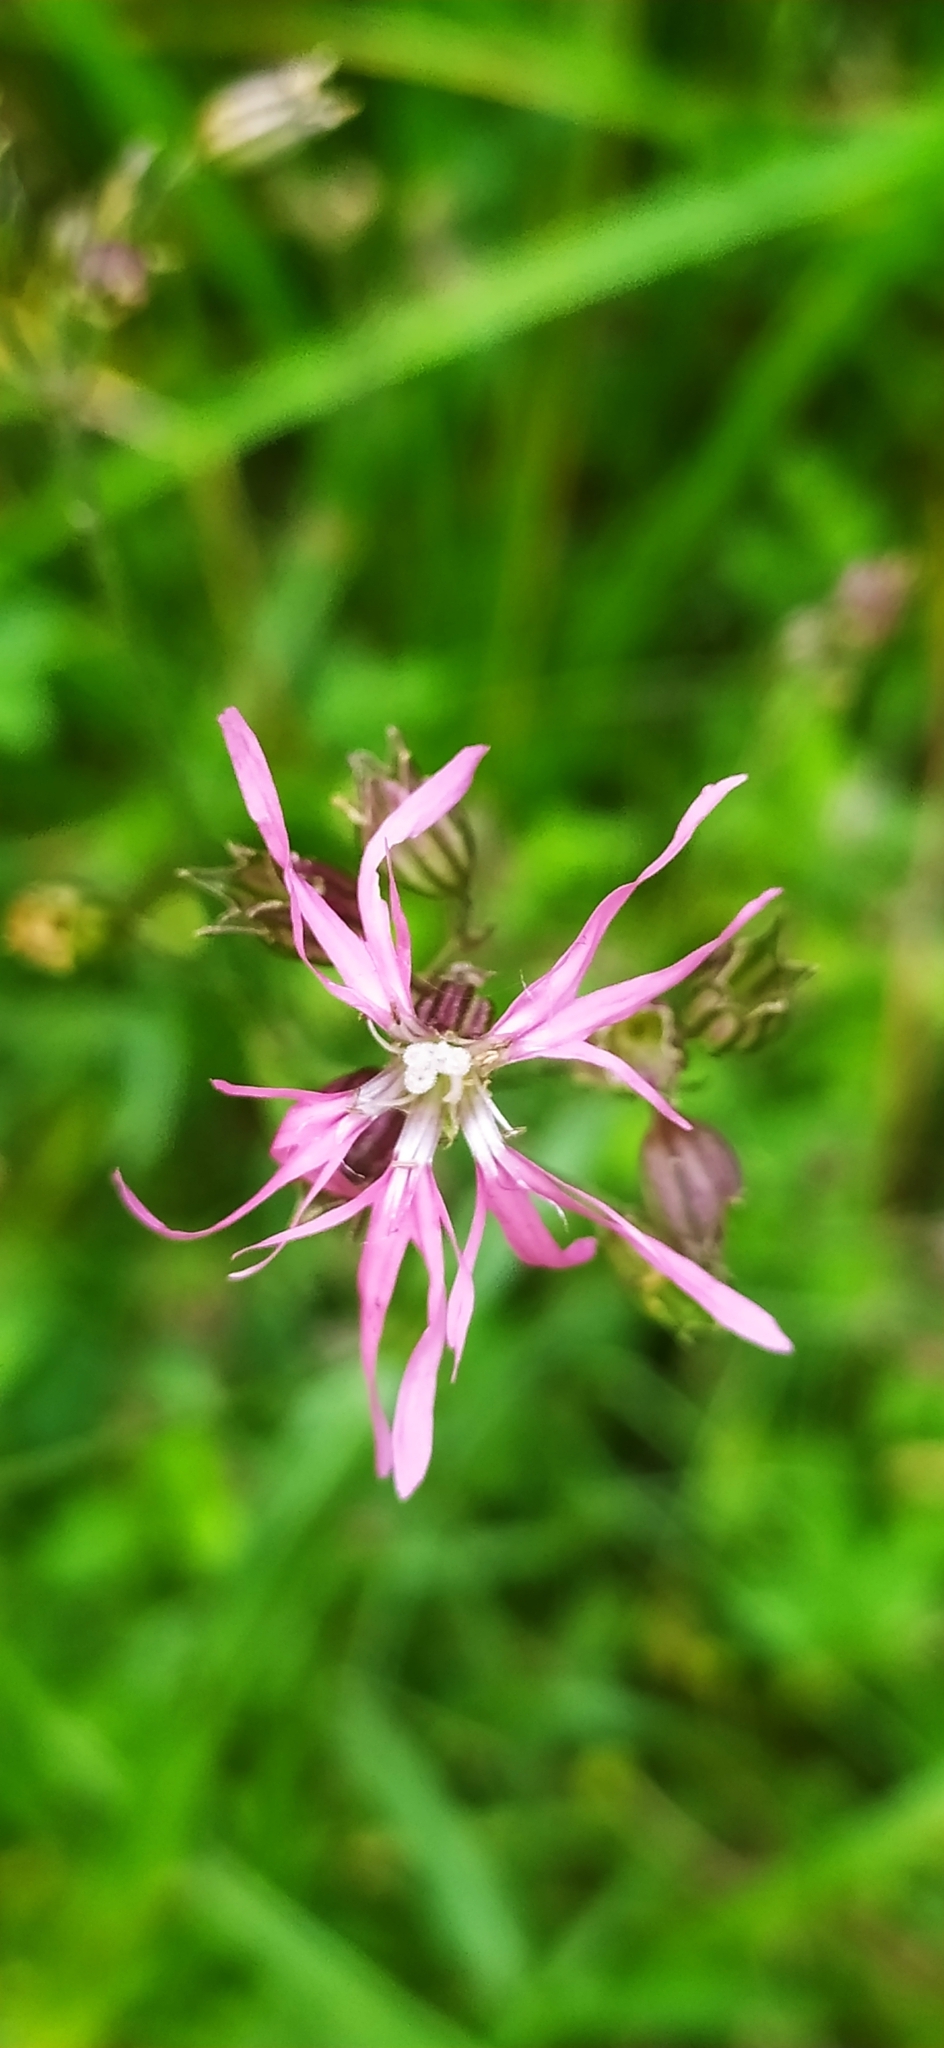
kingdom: Plantae
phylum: Tracheophyta
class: Magnoliopsida
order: Caryophyllales
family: Caryophyllaceae
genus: Silene
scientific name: Silene flos-cuculi
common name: Ragged-robin
